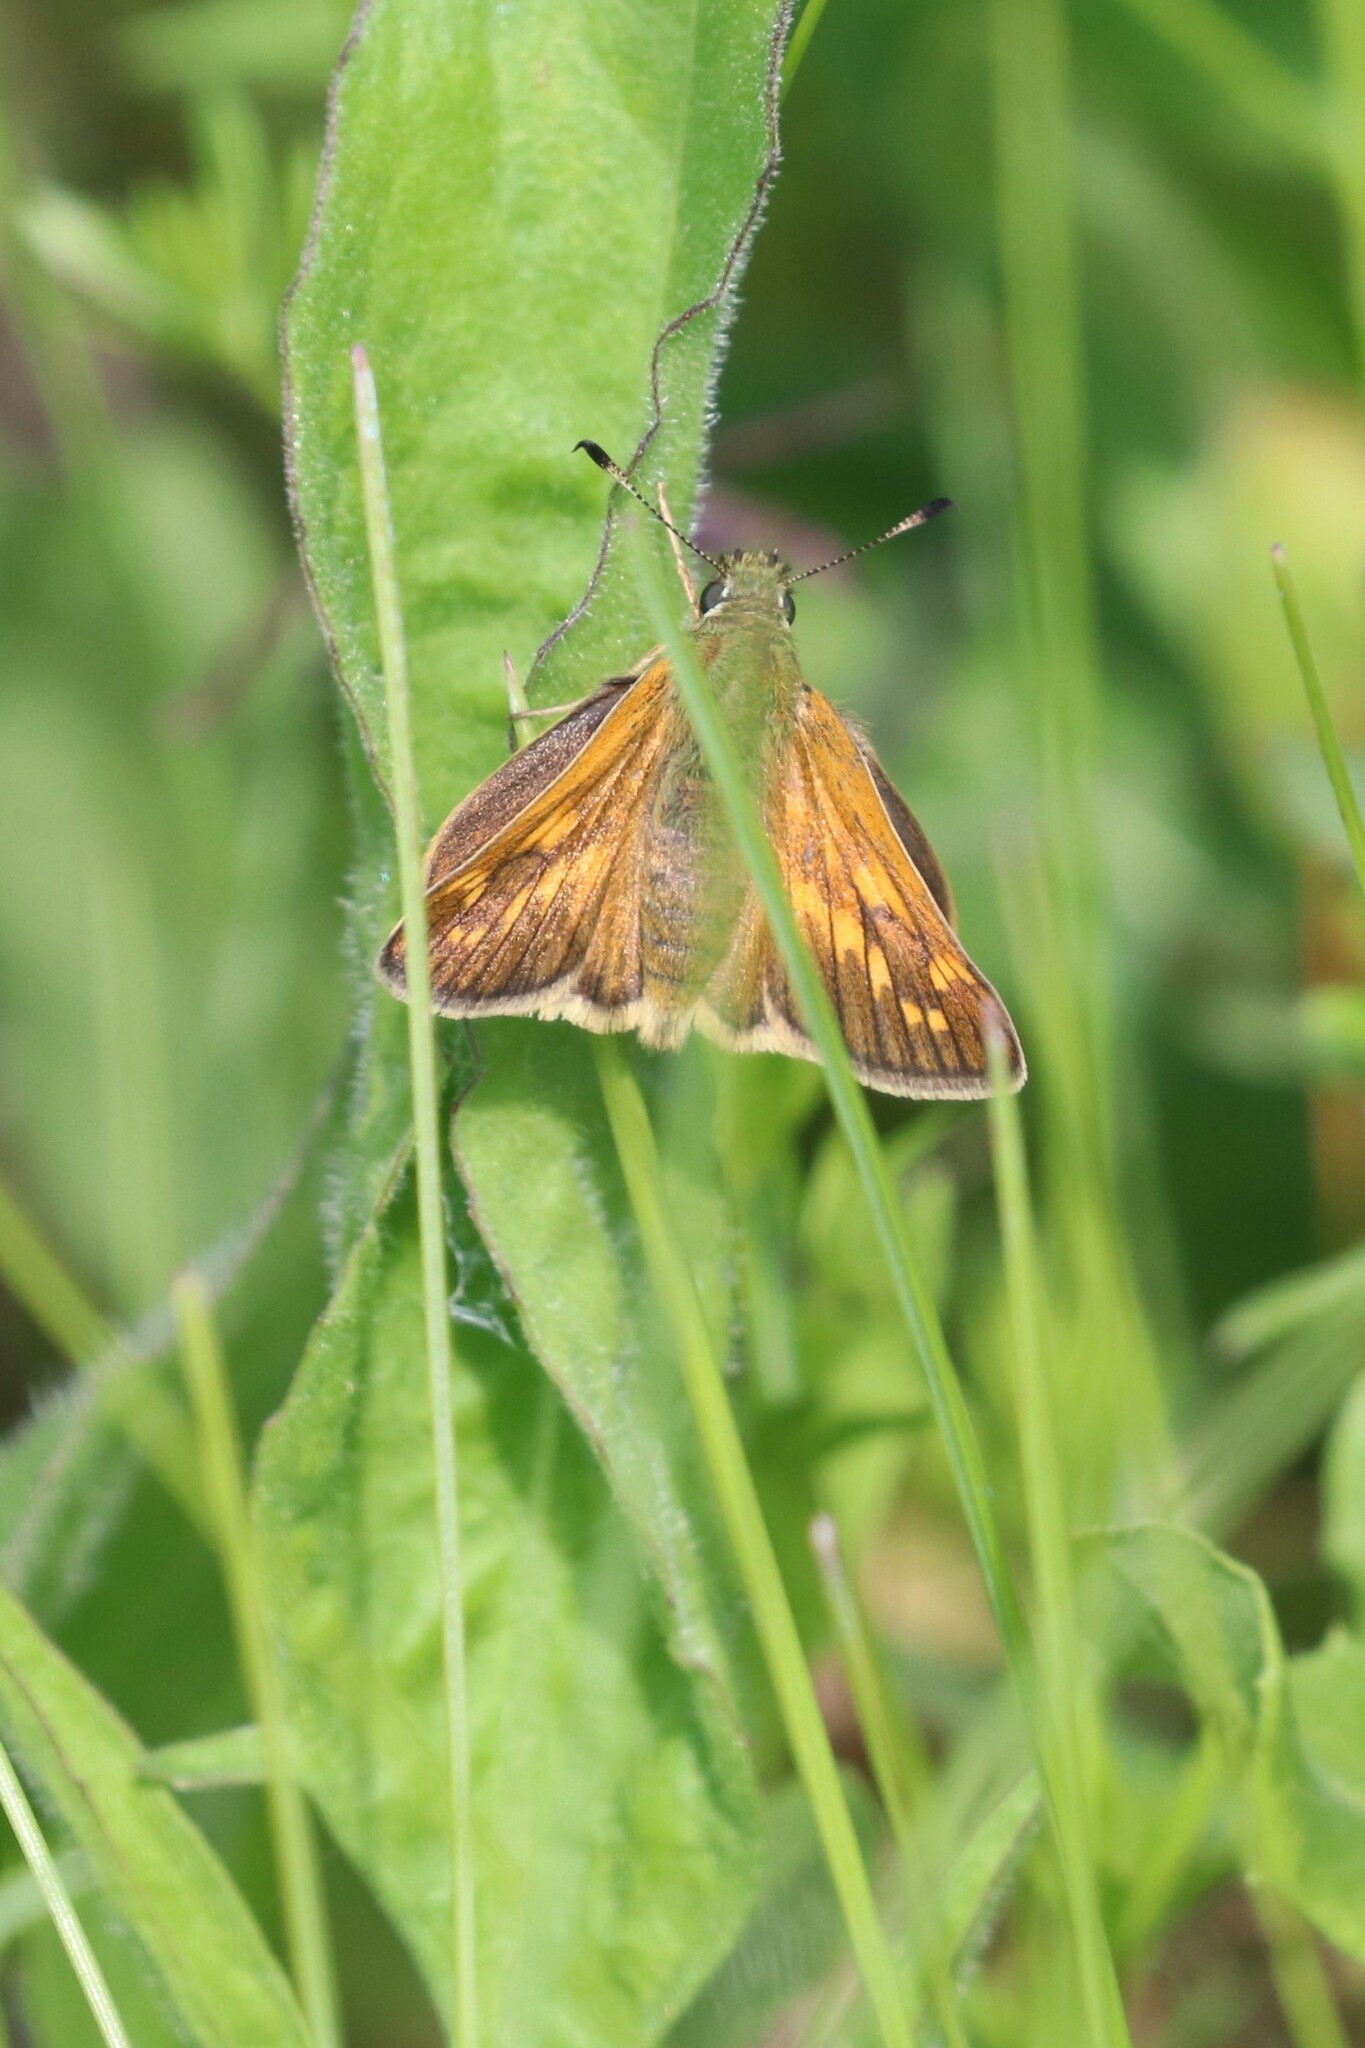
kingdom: Animalia
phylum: Arthropoda
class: Insecta
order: Lepidoptera
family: Hesperiidae
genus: Ochlodes
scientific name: Ochlodes venata
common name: Large skipper
